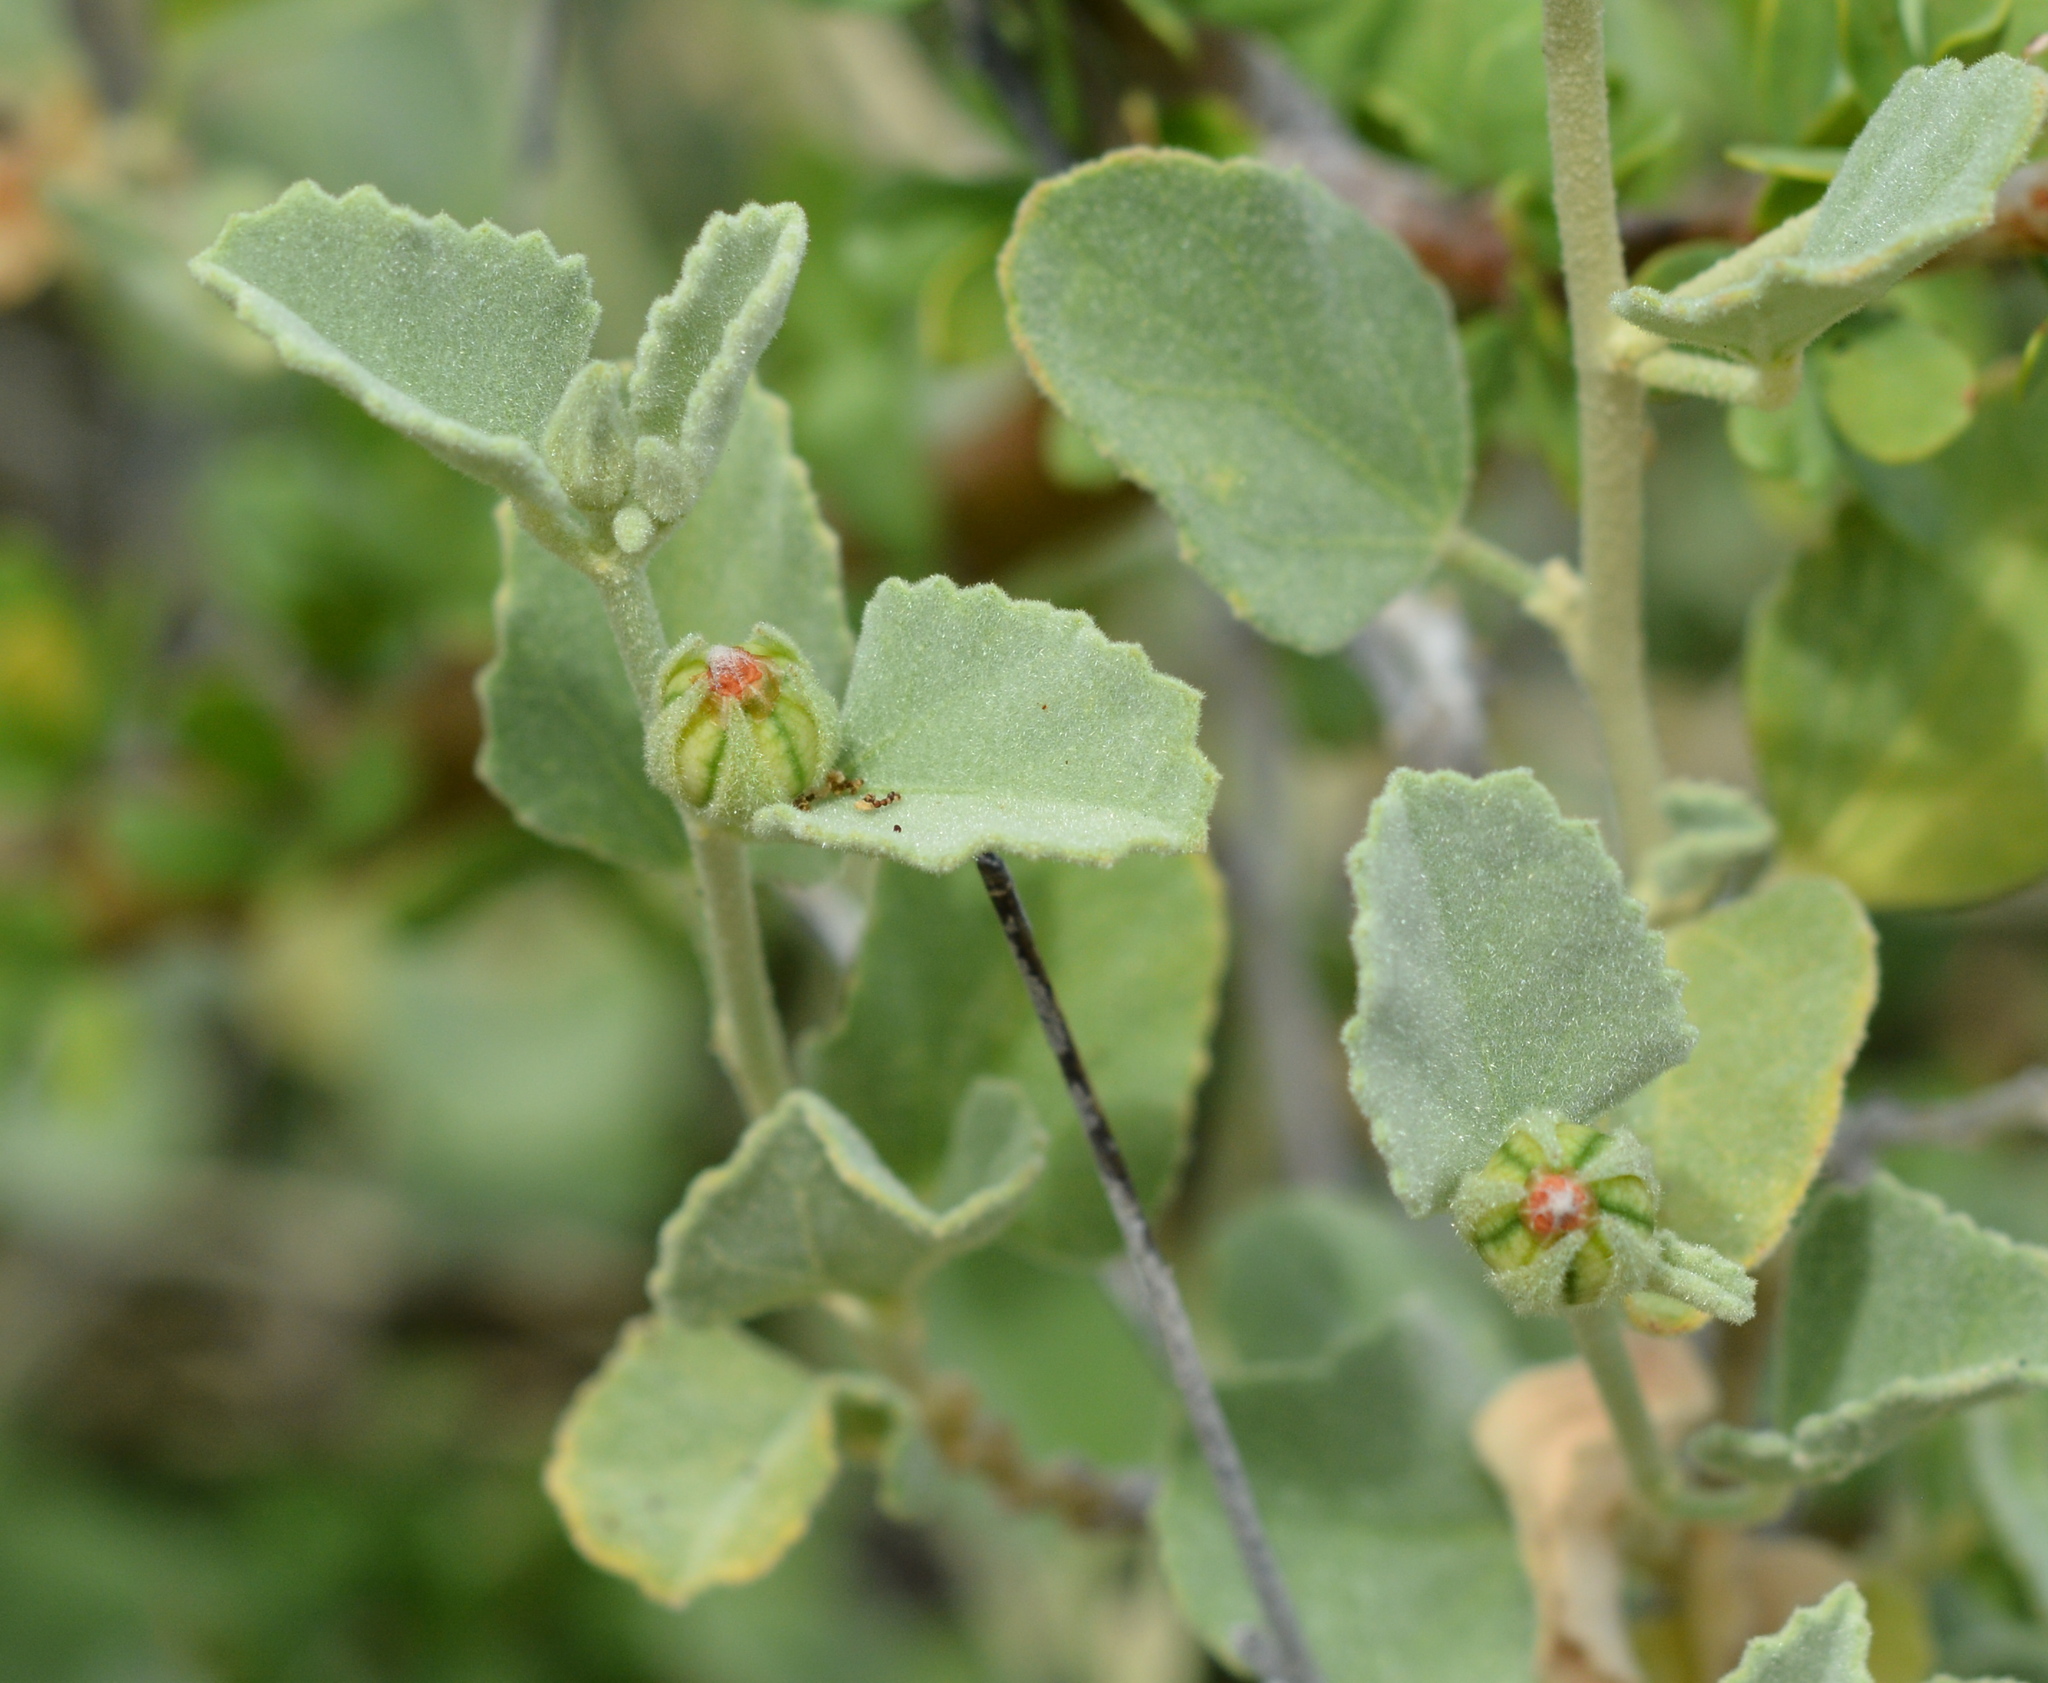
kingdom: Plantae
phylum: Tracheophyta
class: Magnoliopsida
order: Malvales
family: Malvaceae
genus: Hibiscus
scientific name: Hibiscus denudatus
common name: Paleface
